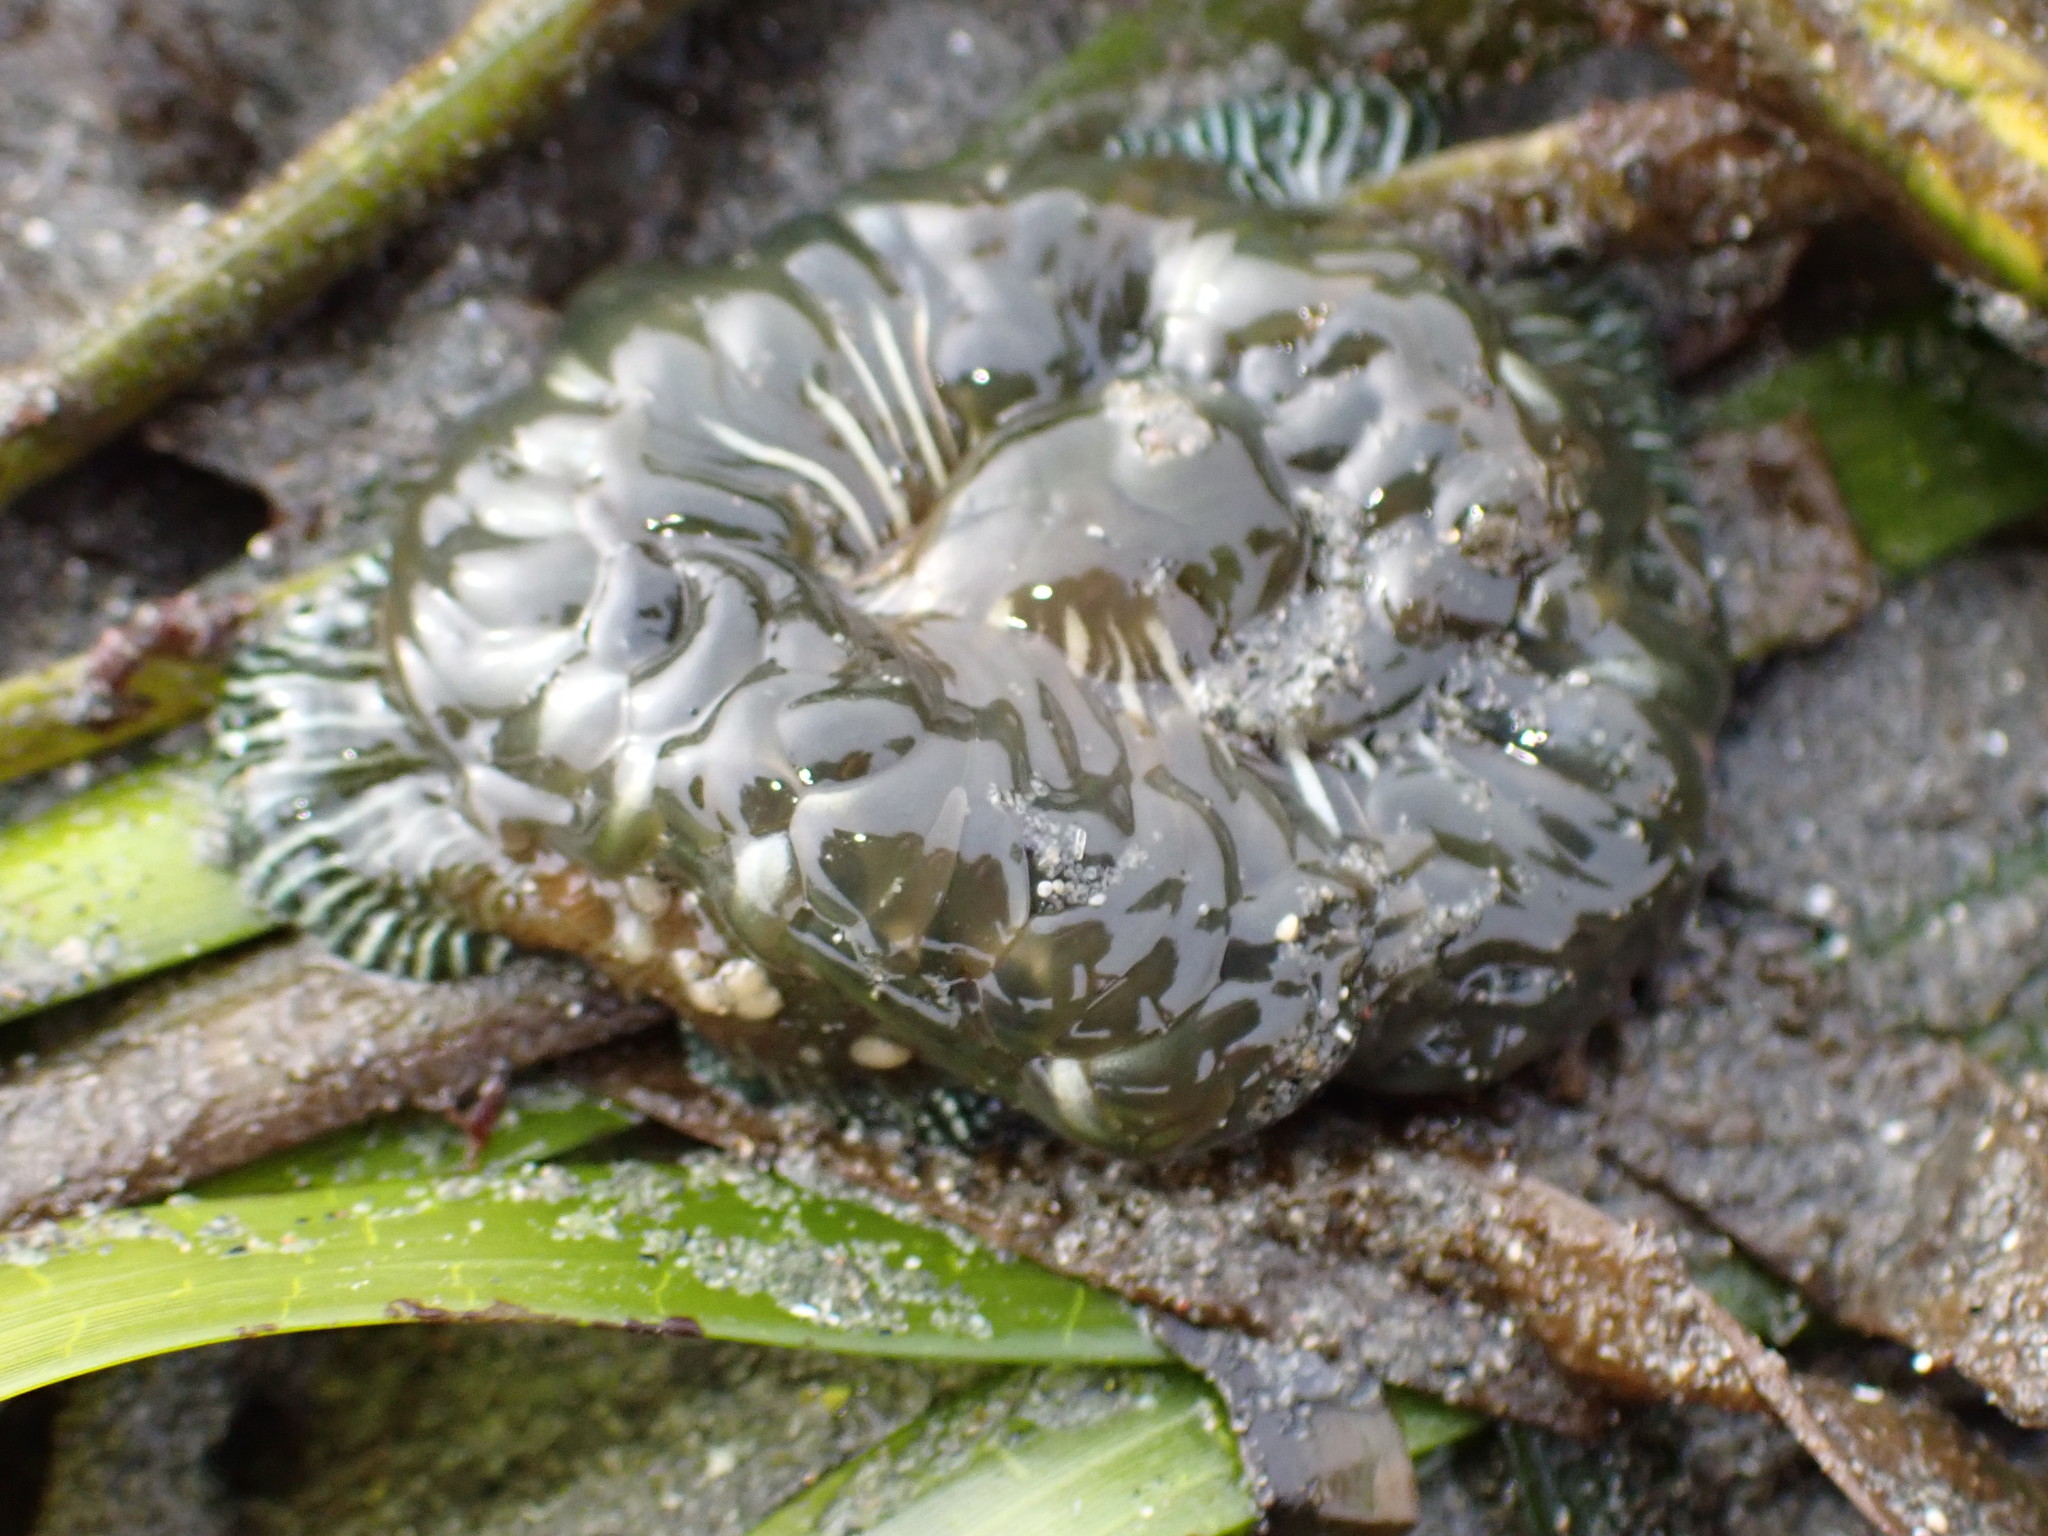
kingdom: Animalia
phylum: Cnidaria
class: Anthozoa
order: Actiniaria
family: Actiniidae
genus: Epiactis
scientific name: Epiactis lisbethae
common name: Giant brooding anemone
